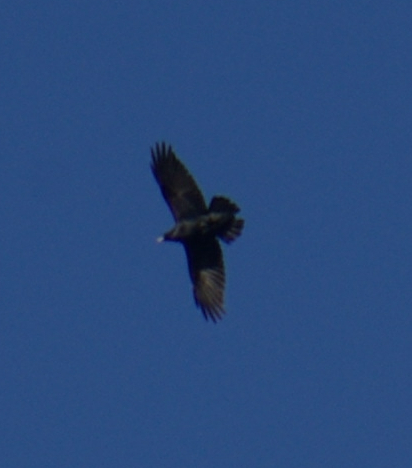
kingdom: Animalia
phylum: Chordata
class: Aves
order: Passeriformes
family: Corvidae
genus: Corvus
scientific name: Corvus brachyrhynchos
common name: American crow
